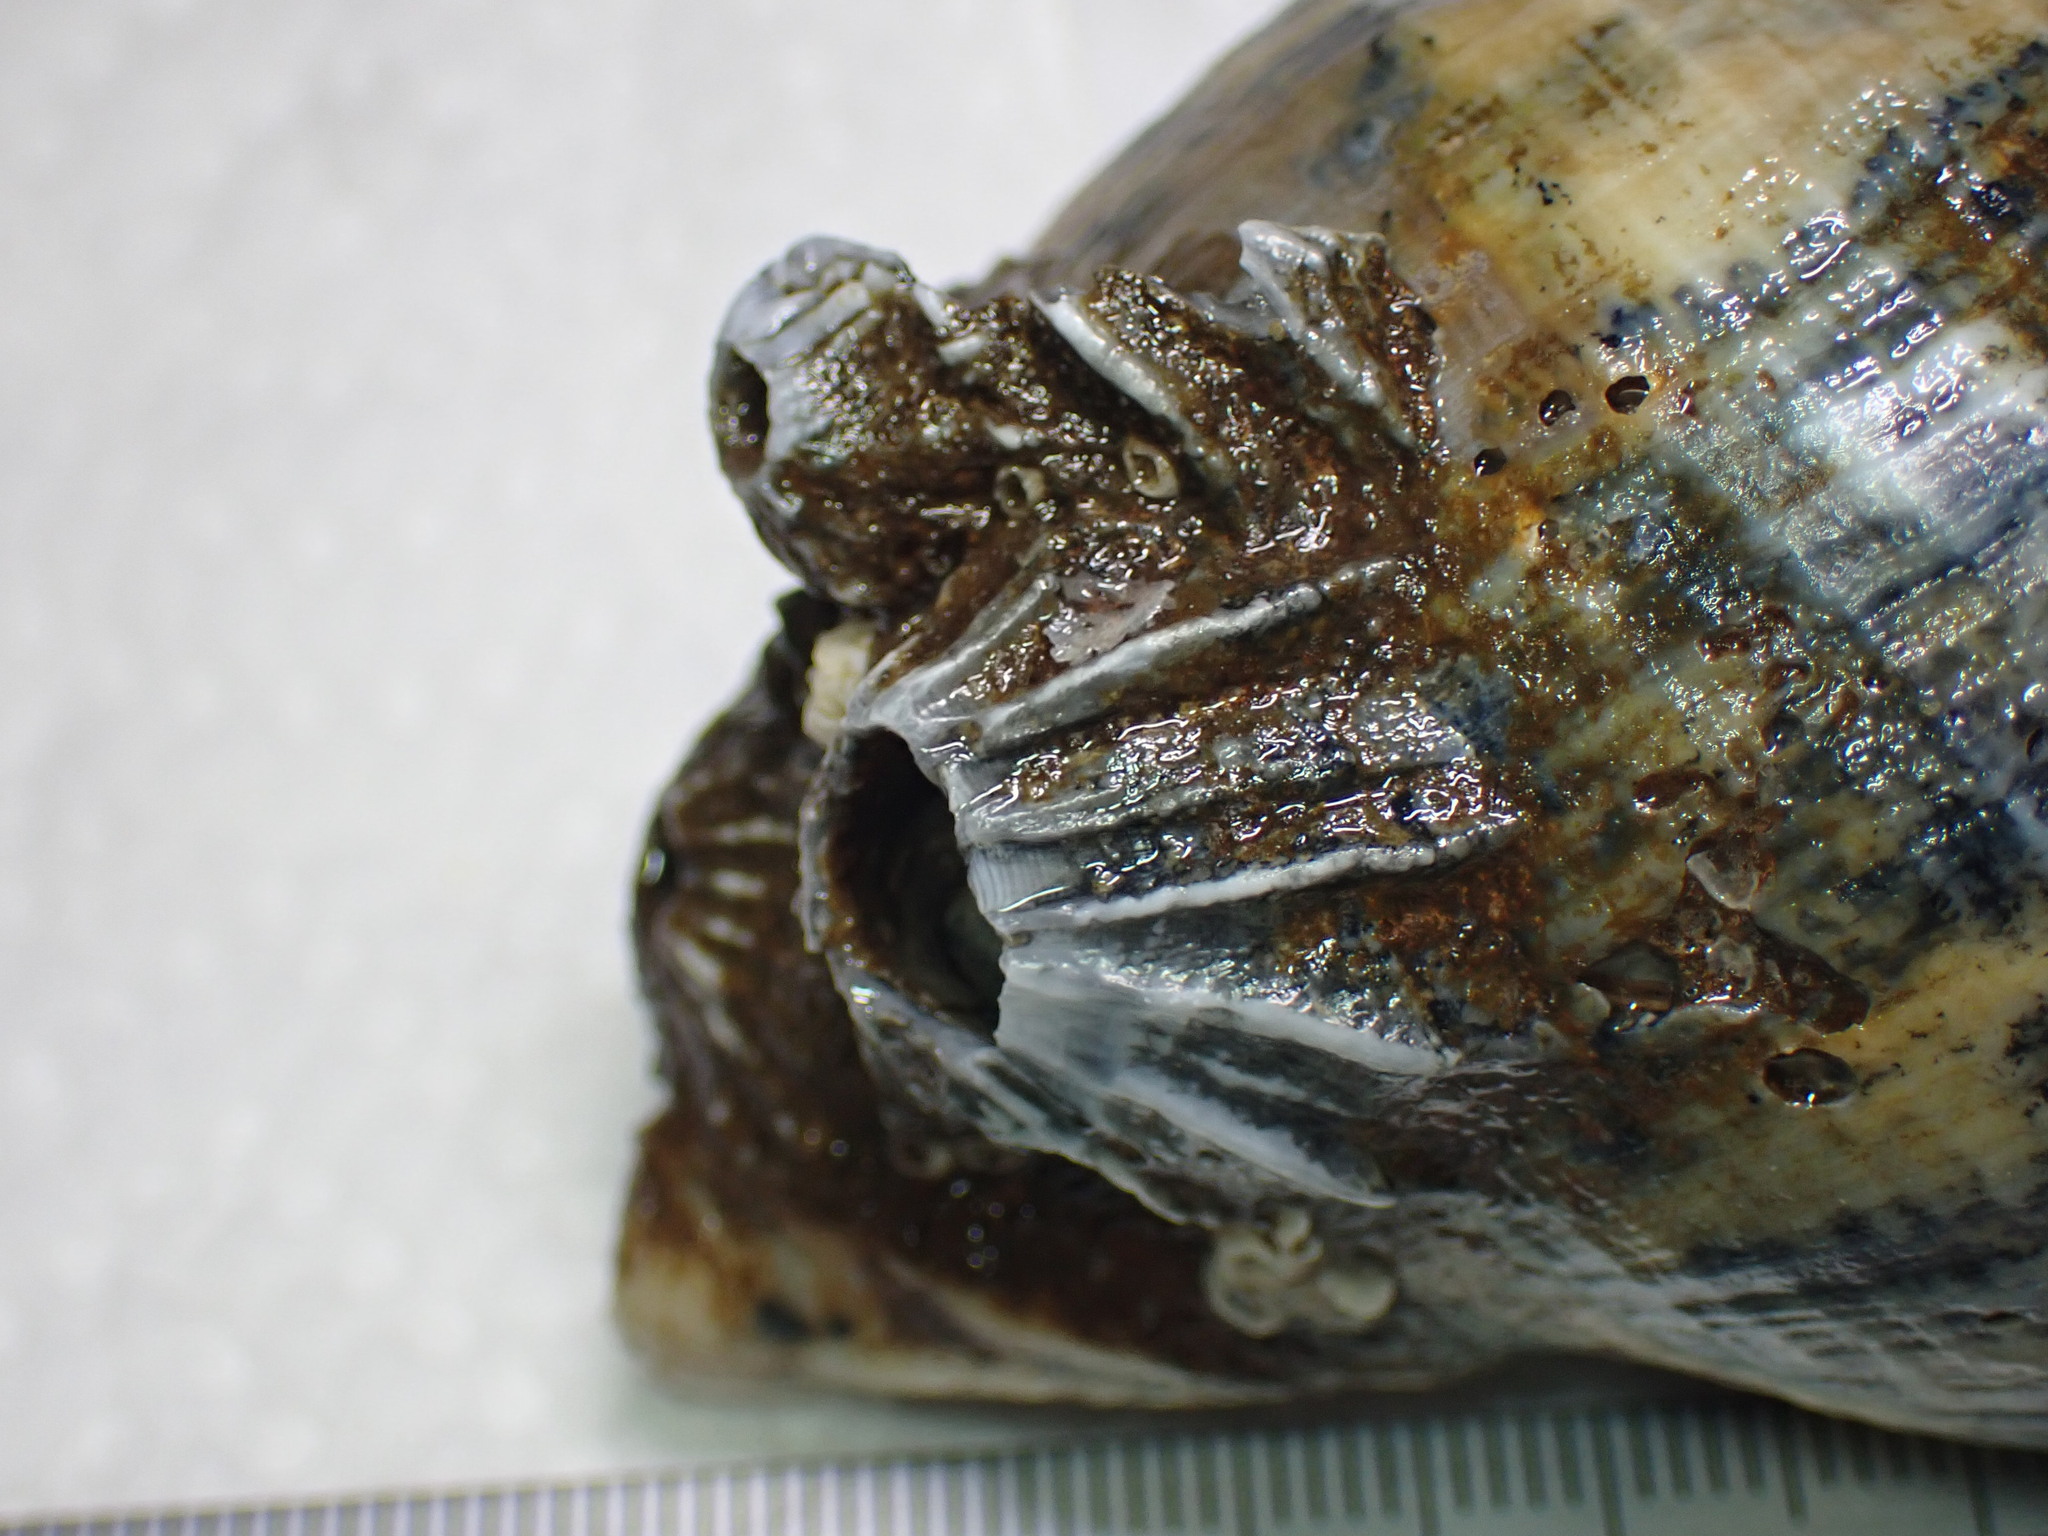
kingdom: Animalia
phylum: Arthropoda
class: Maxillopoda
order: Sessilia
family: Balanidae
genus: Balanus
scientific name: Balanus balanus
